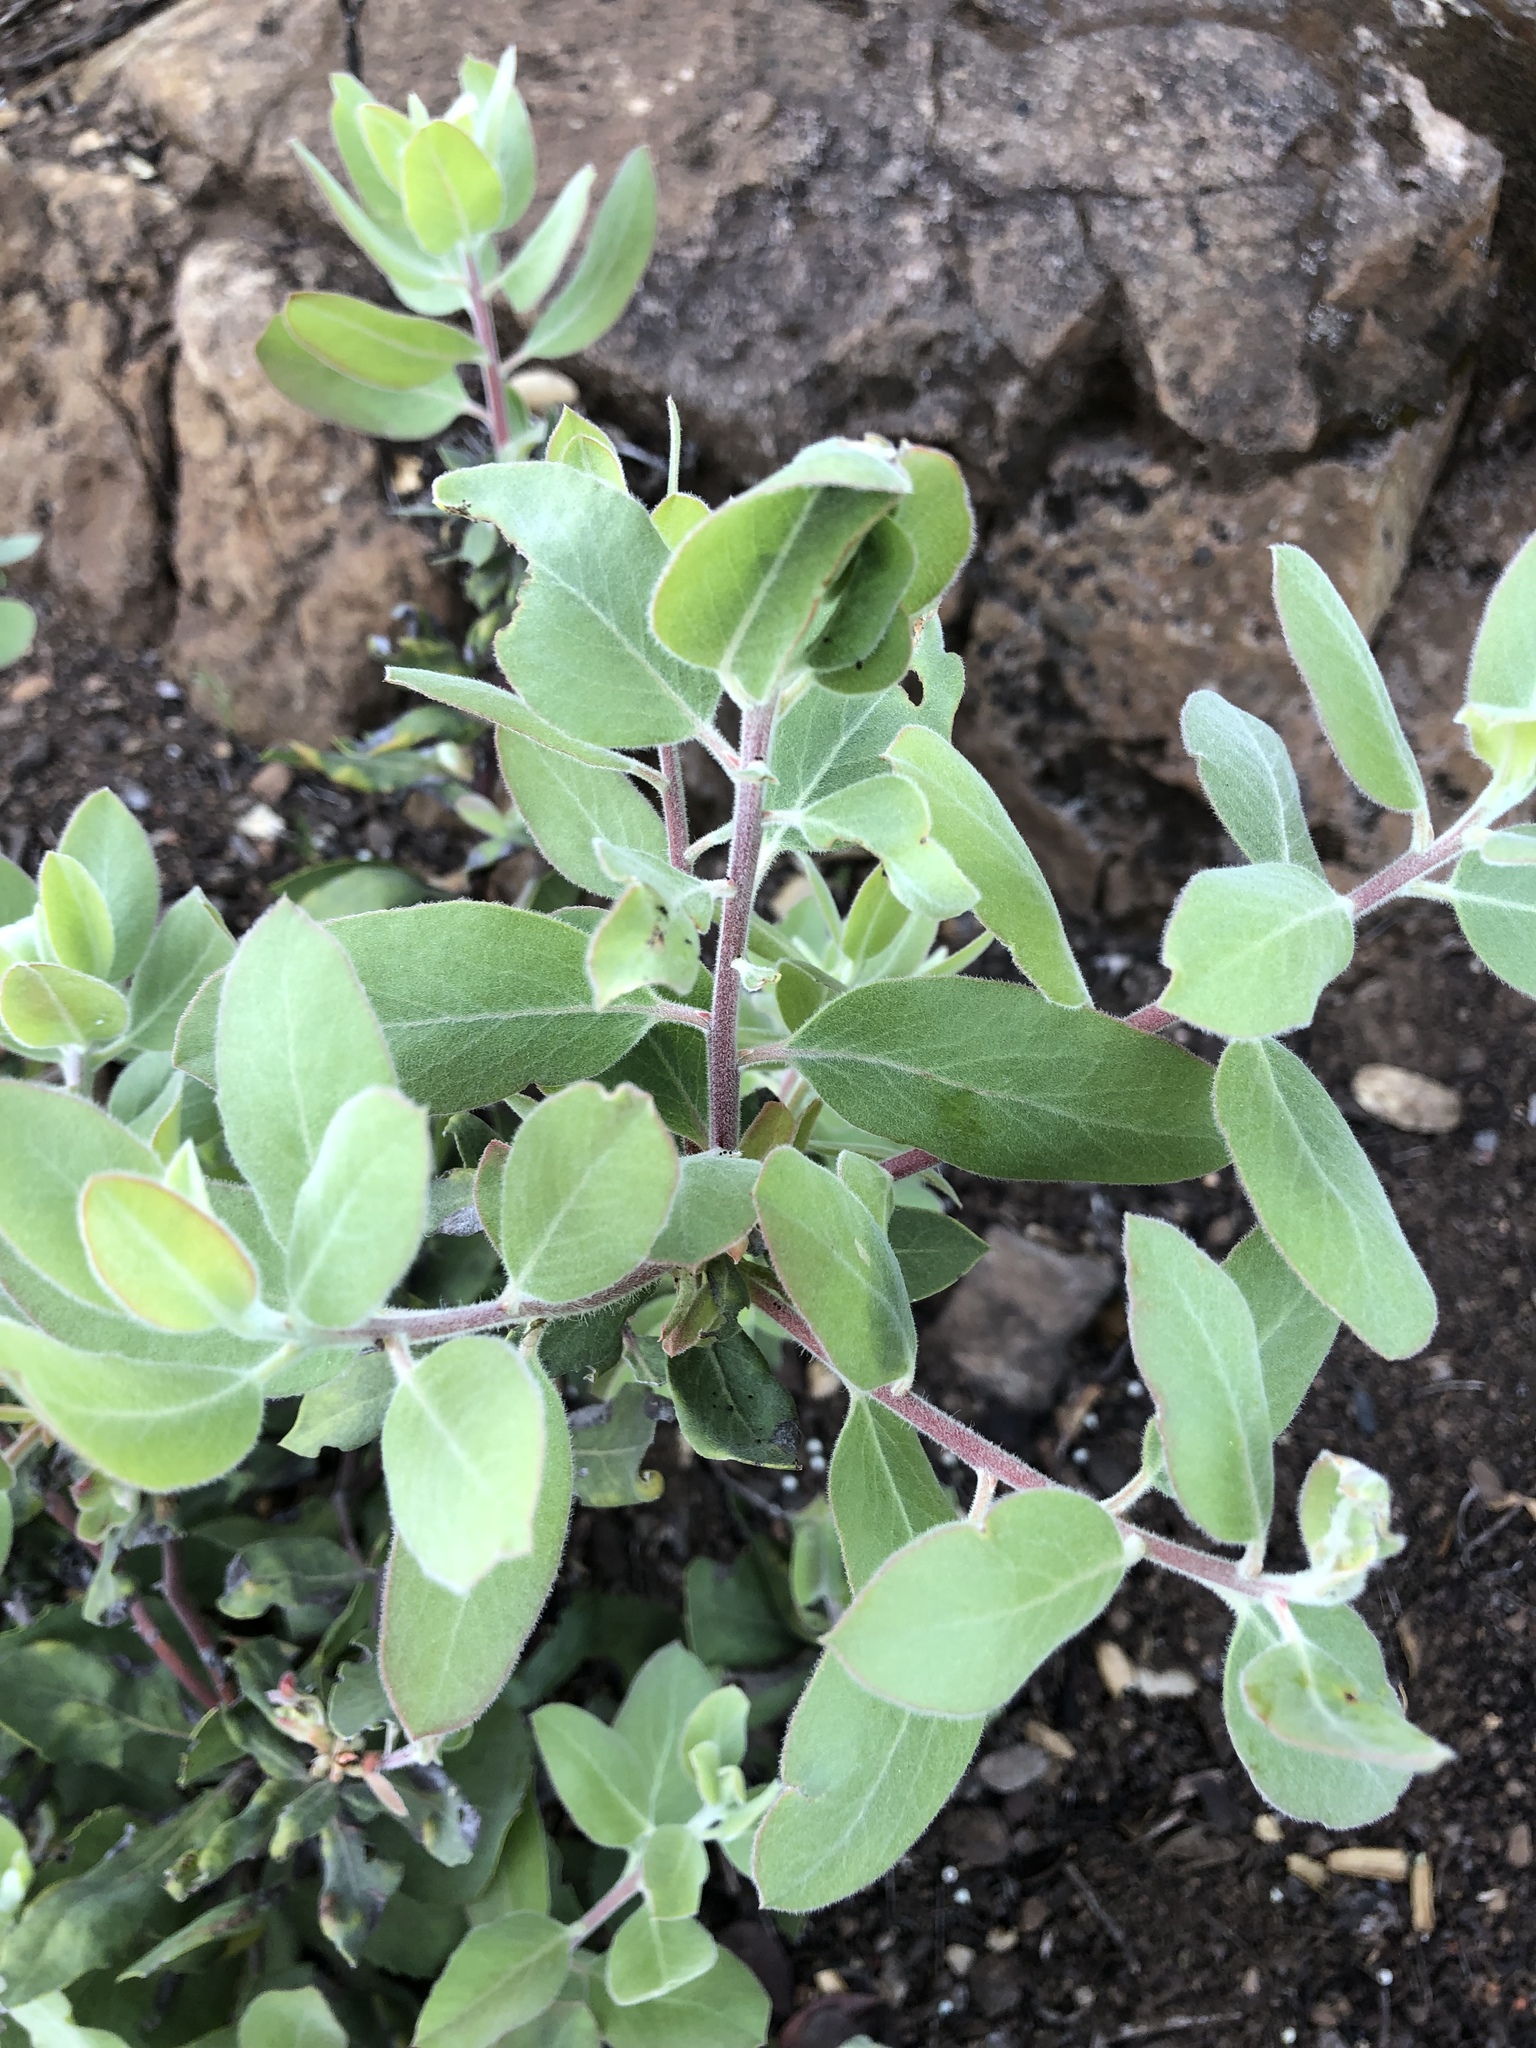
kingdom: Plantae
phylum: Tracheophyta
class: Magnoliopsida
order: Ericales
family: Ericaceae
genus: Arctostaphylos
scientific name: Arctostaphylos glandulosa
